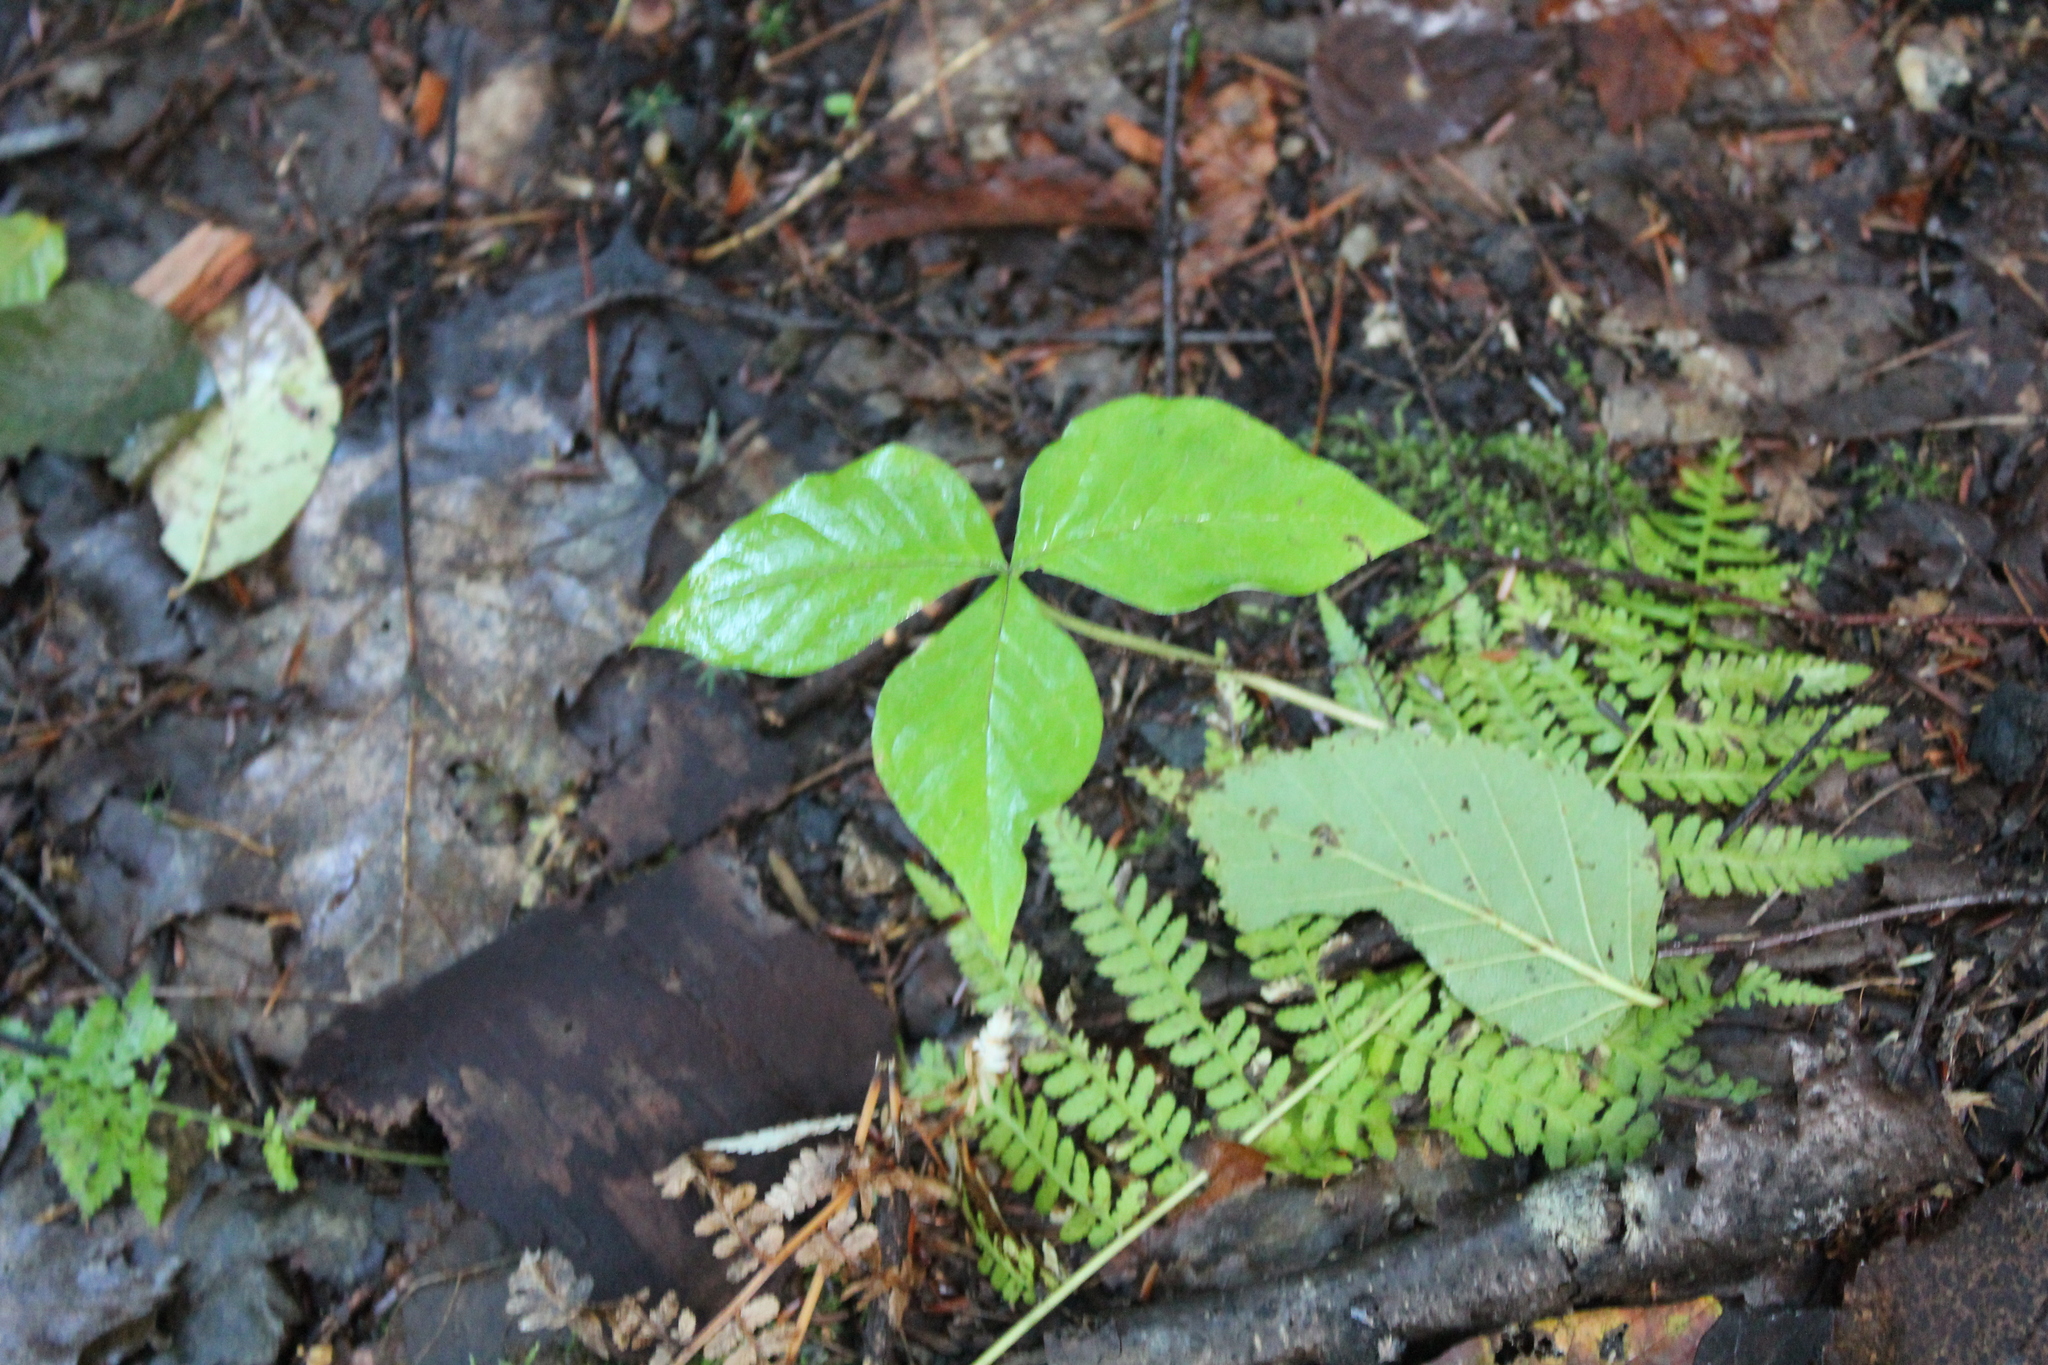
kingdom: Plantae
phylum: Tracheophyta
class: Liliopsida
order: Alismatales
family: Araceae
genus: Arisaema
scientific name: Arisaema triphyllum
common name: Jack-in-the-pulpit
